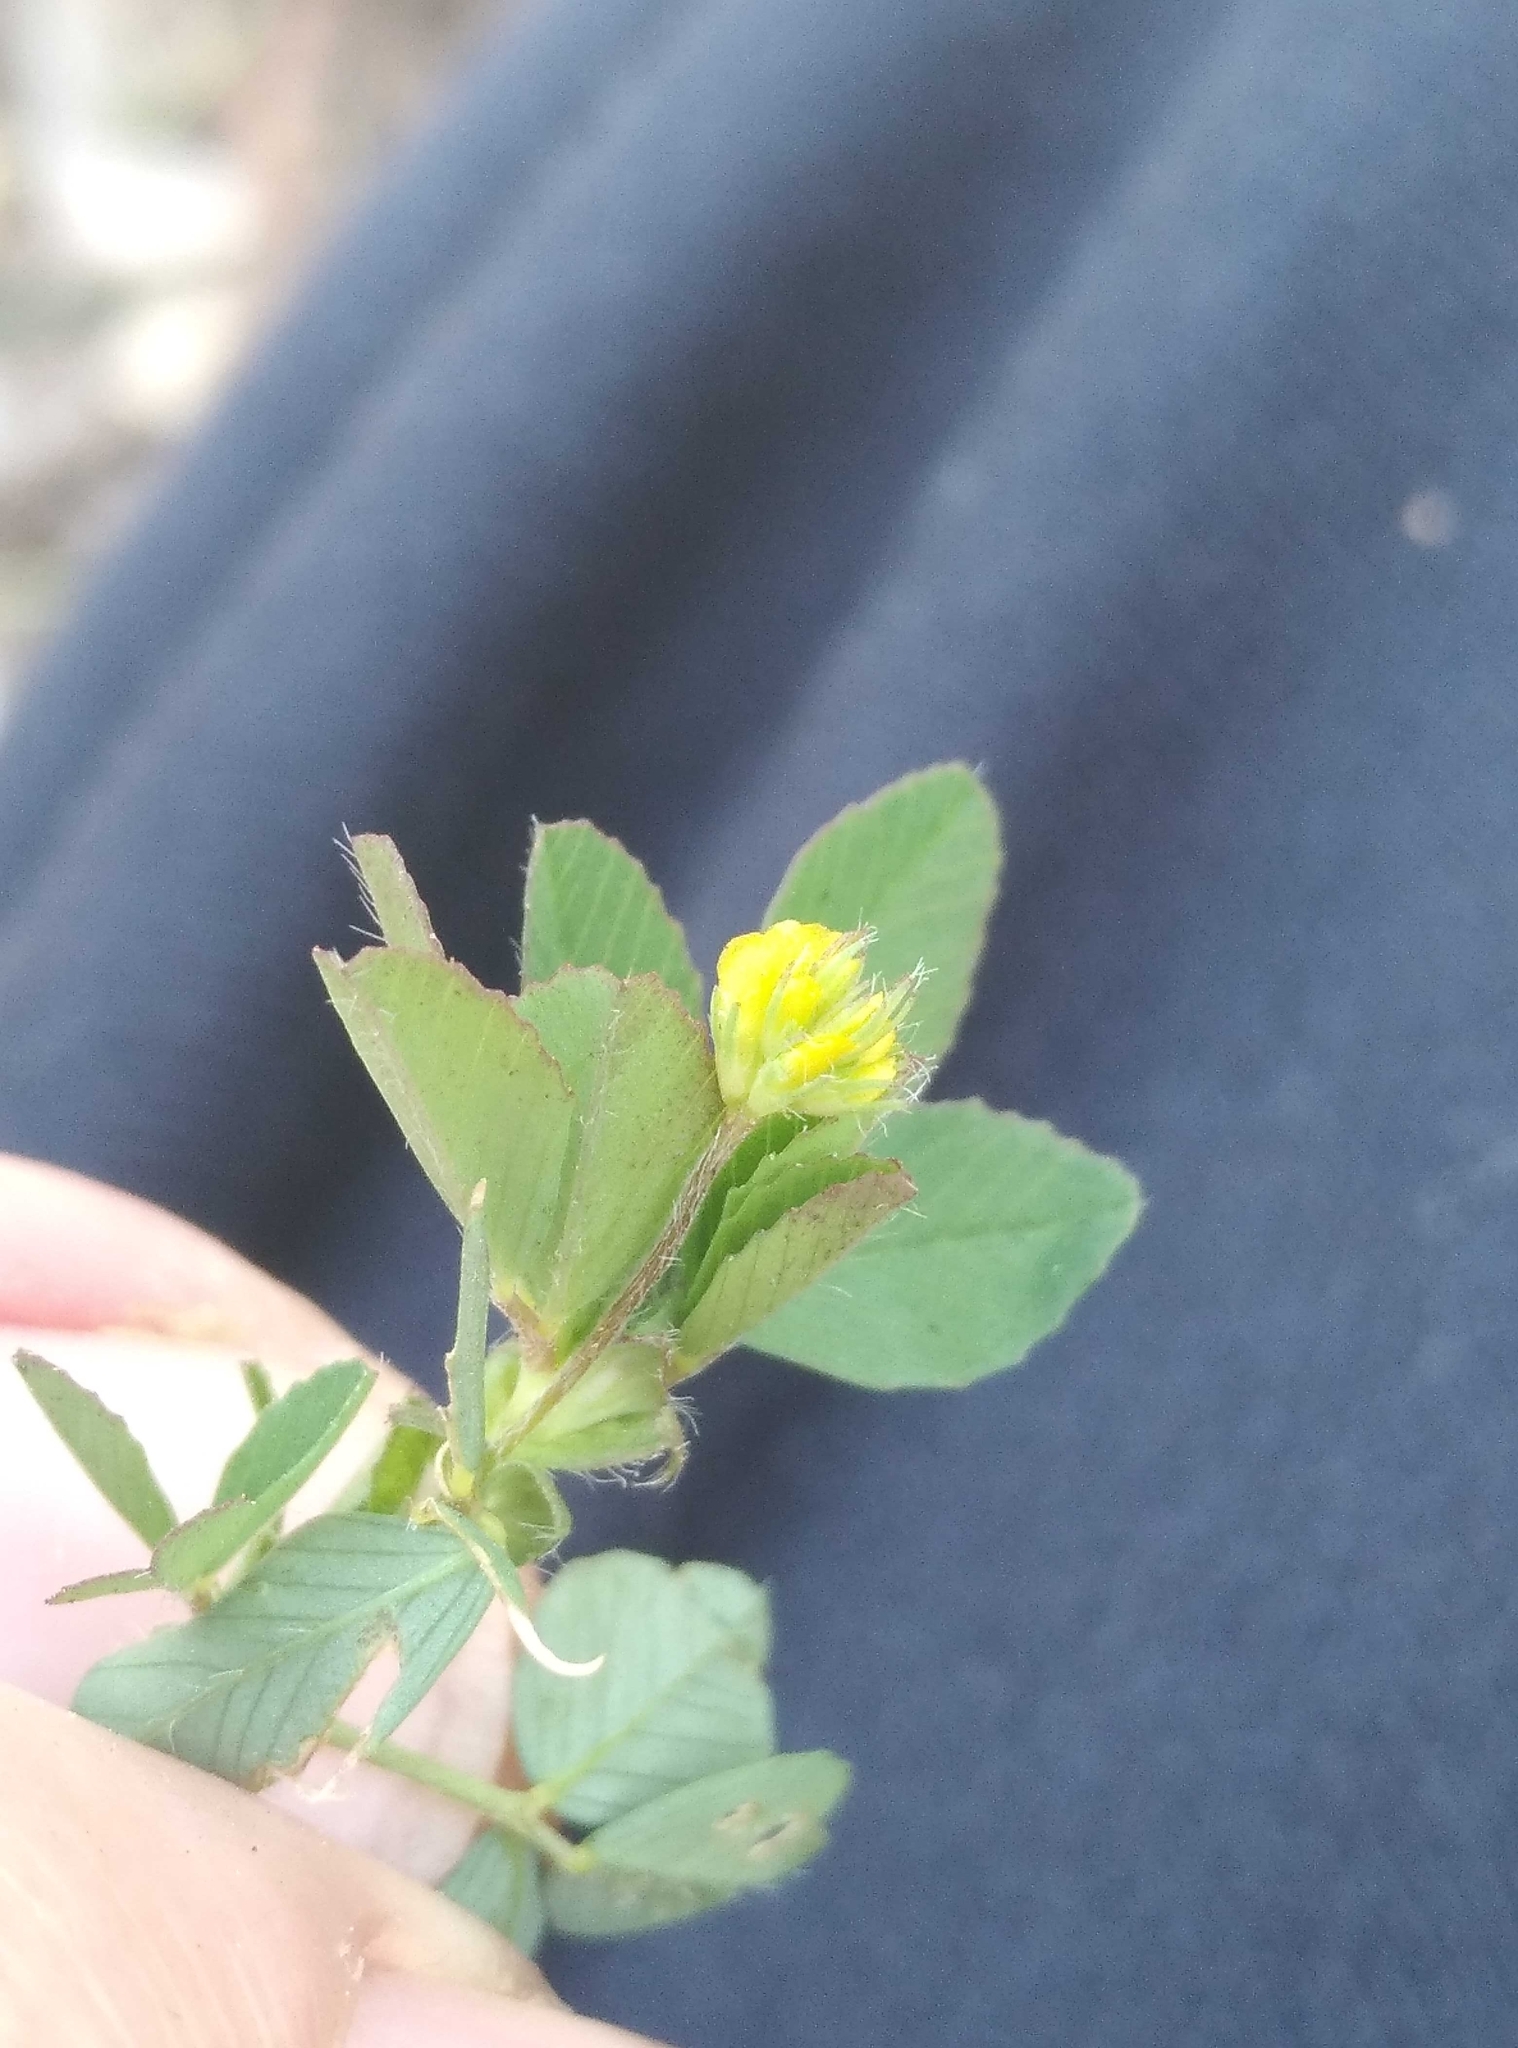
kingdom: Plantae
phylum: Tracheophyta
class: Magnoliopsida
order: Fabales
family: Fabaceae
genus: Trifolium
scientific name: Trifolium dubium
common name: Suckling clover
